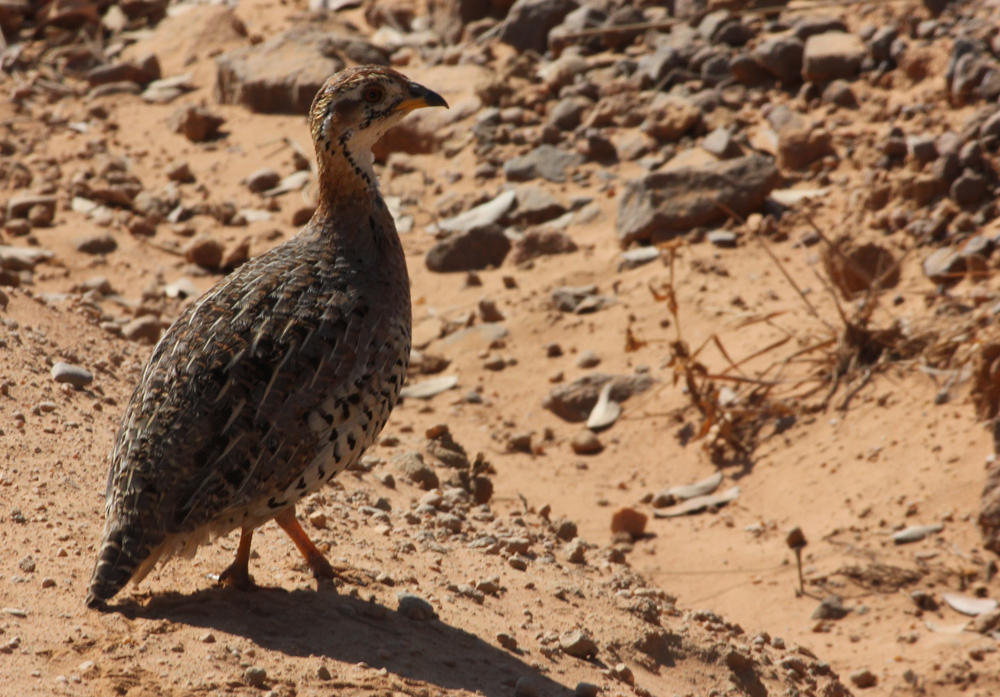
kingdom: Animalia
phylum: Chordata
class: Aves
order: Galliformes
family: Phasianidae
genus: Campocolinus
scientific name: Campocolinus coqui
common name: Coqui francolin
